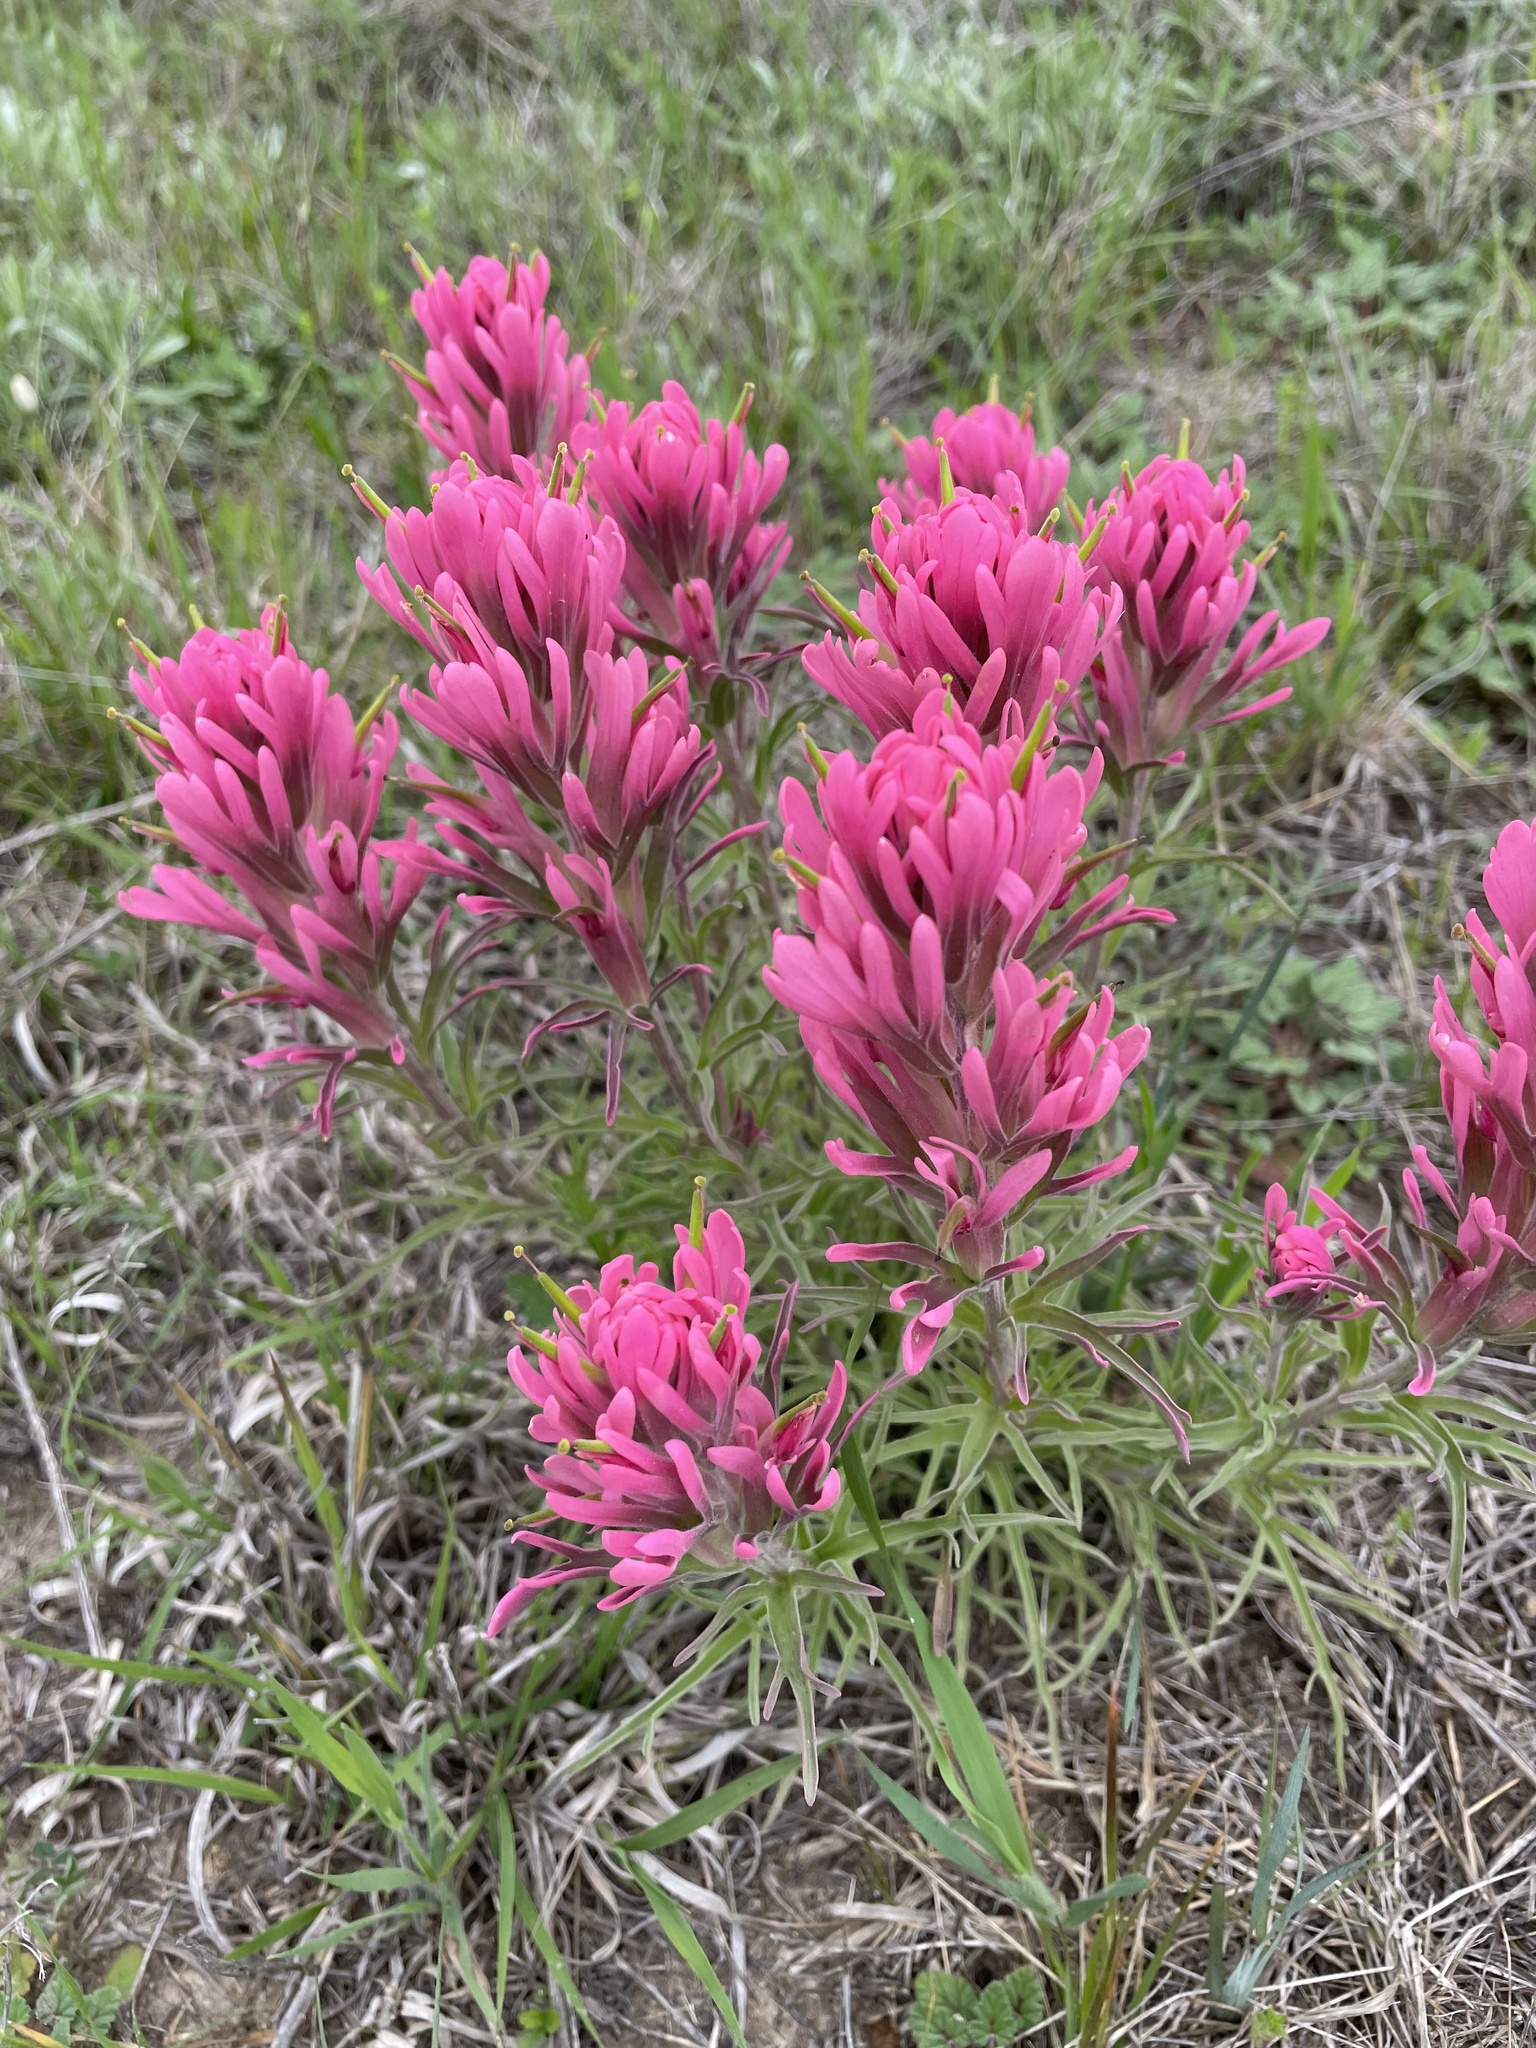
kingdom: Plantae
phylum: Tracheophyta
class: Magnoliopsida
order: Lamiales
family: Orobanchaceae
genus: Castilleja
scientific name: Castilleja purpurea
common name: Plains paintbrush
